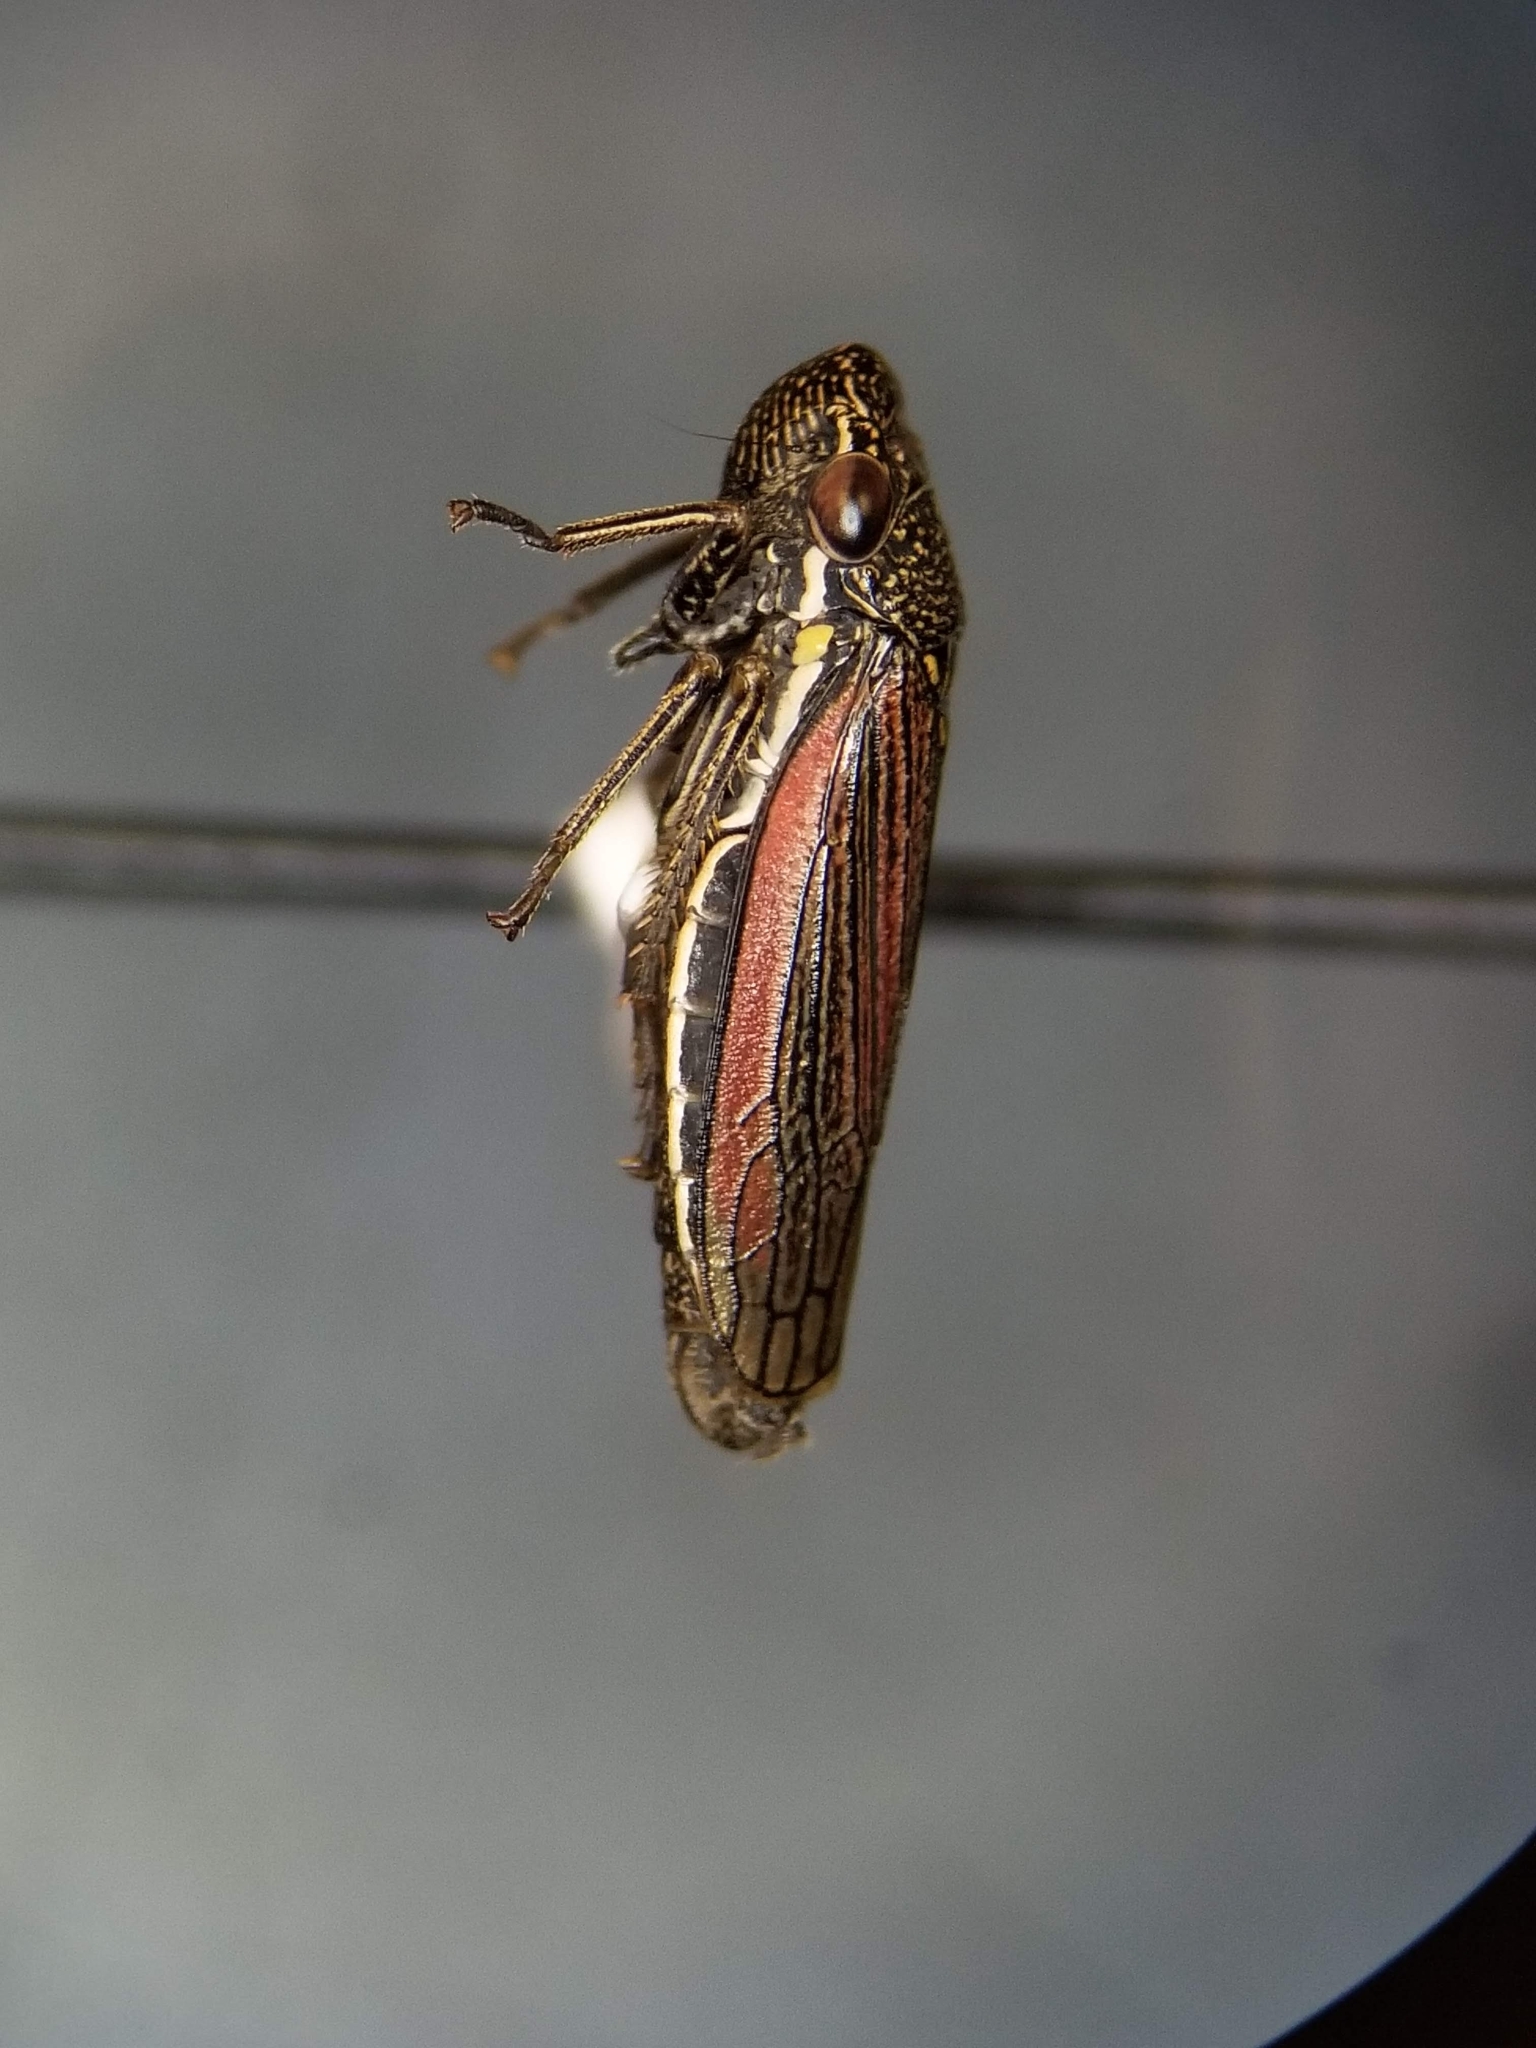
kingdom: Animalia
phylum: Arthropoda
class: Insecta
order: Hemiptera
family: Cicadellidae
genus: Cuerna
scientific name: Cuerna striata
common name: Striped leafhopper
